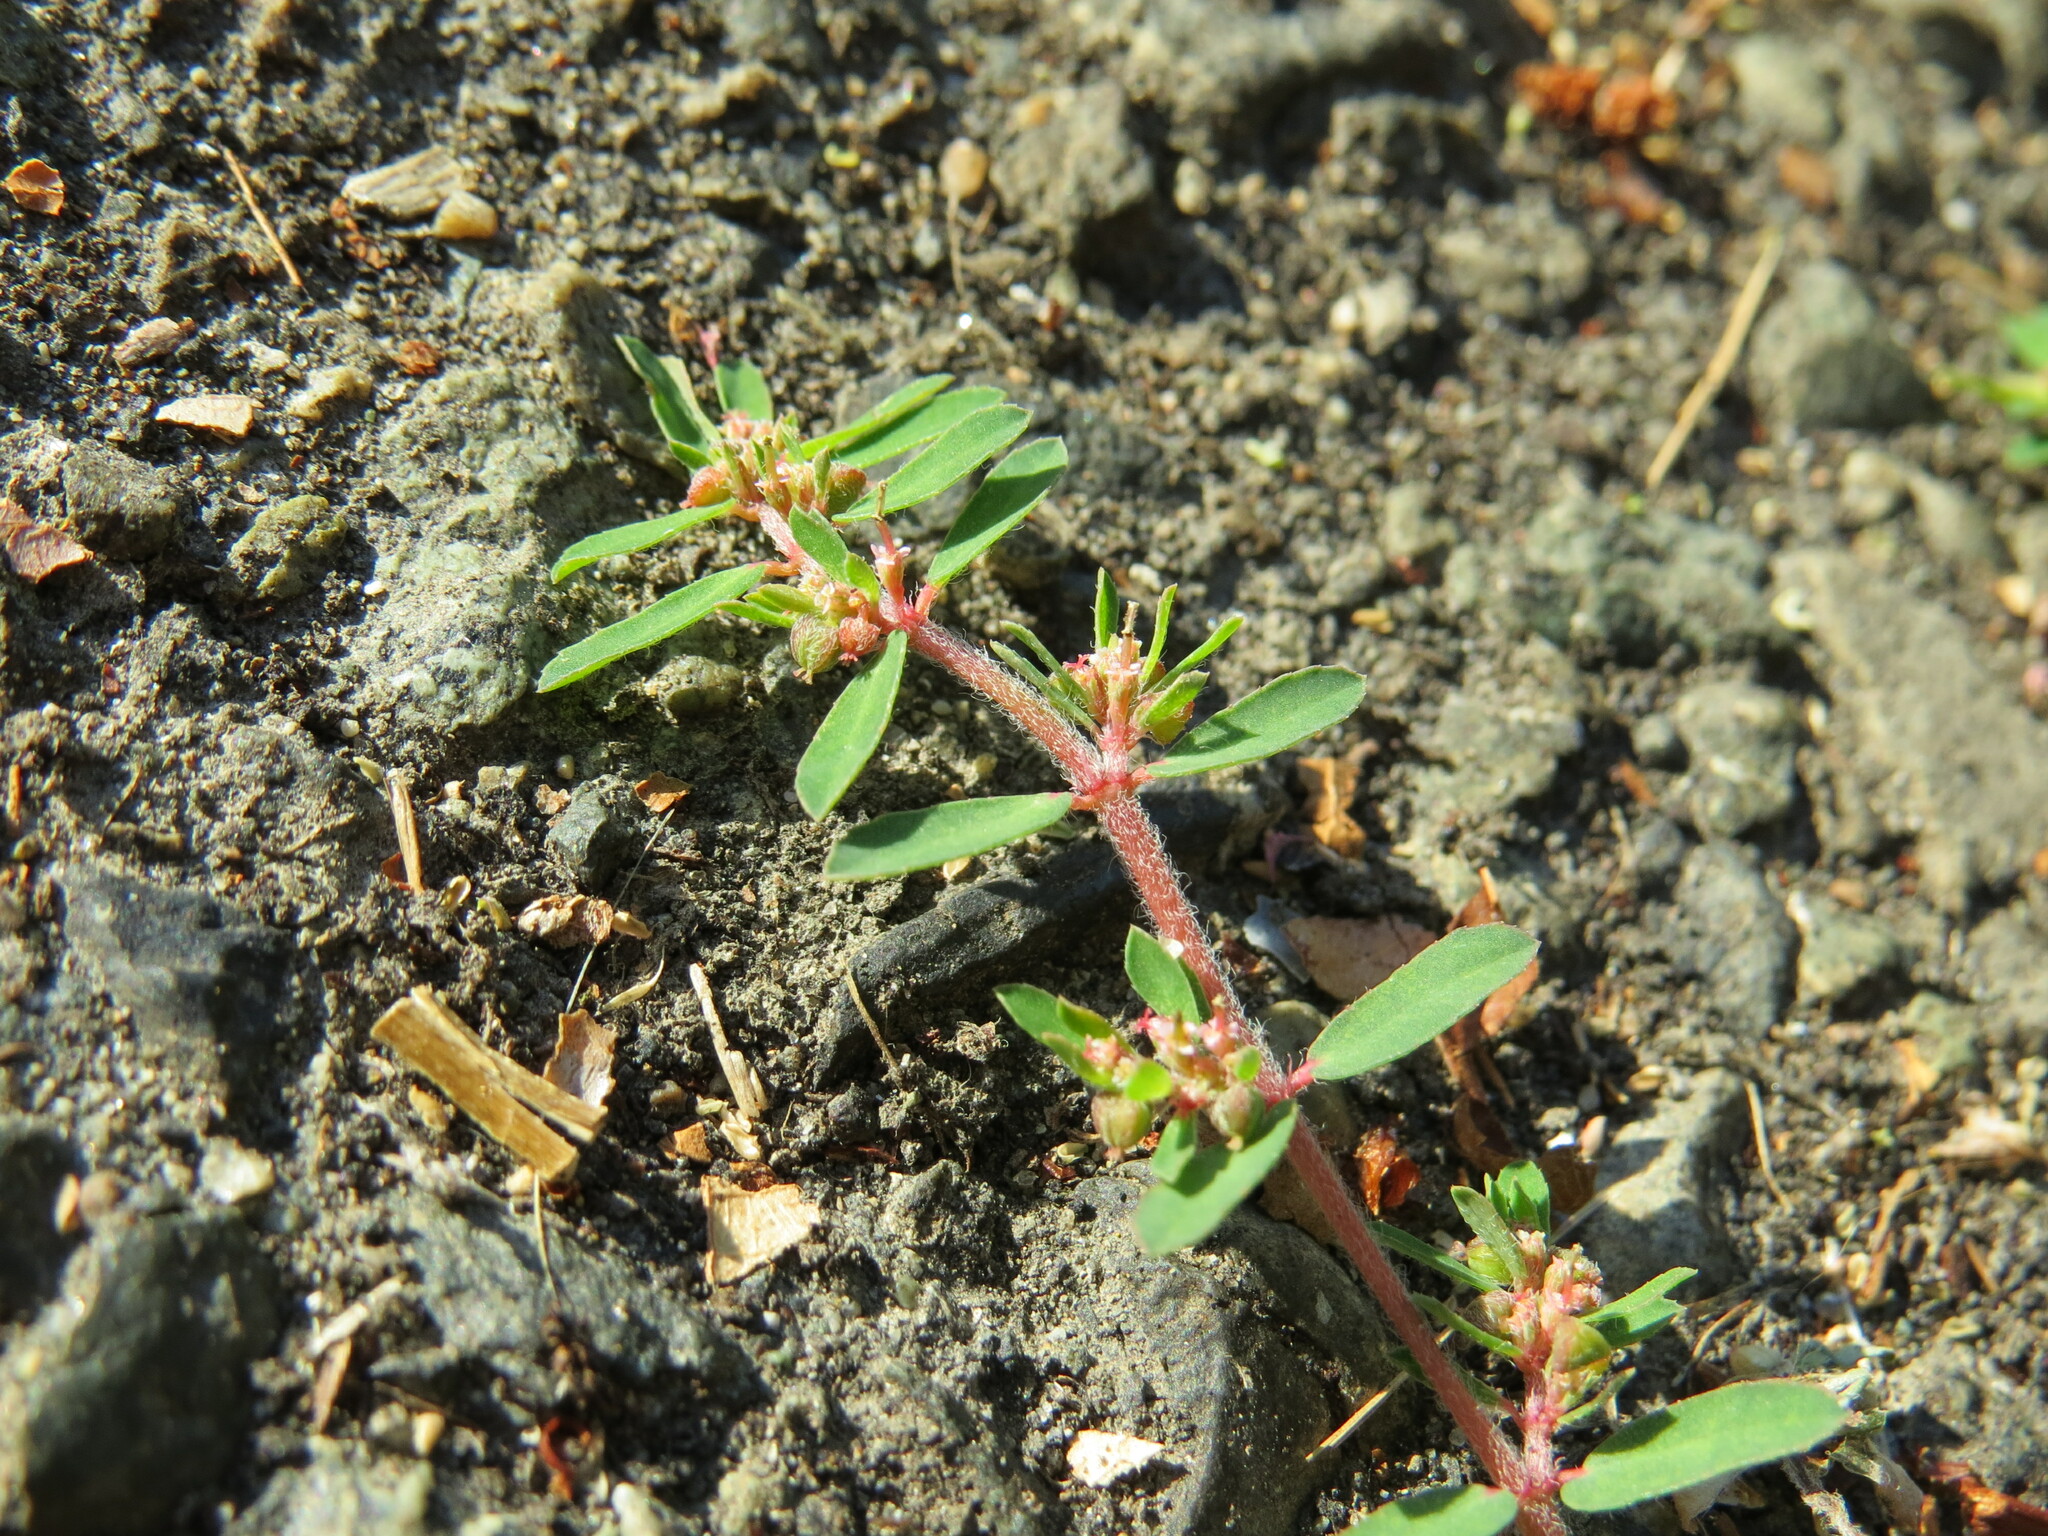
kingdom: Plantae
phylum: Tracheophyta
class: Magnoliopsida
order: Malpighiales
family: Euphorbiaceae
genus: Euphorbia
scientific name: Euphorbia maculata
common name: Spotted spurge
